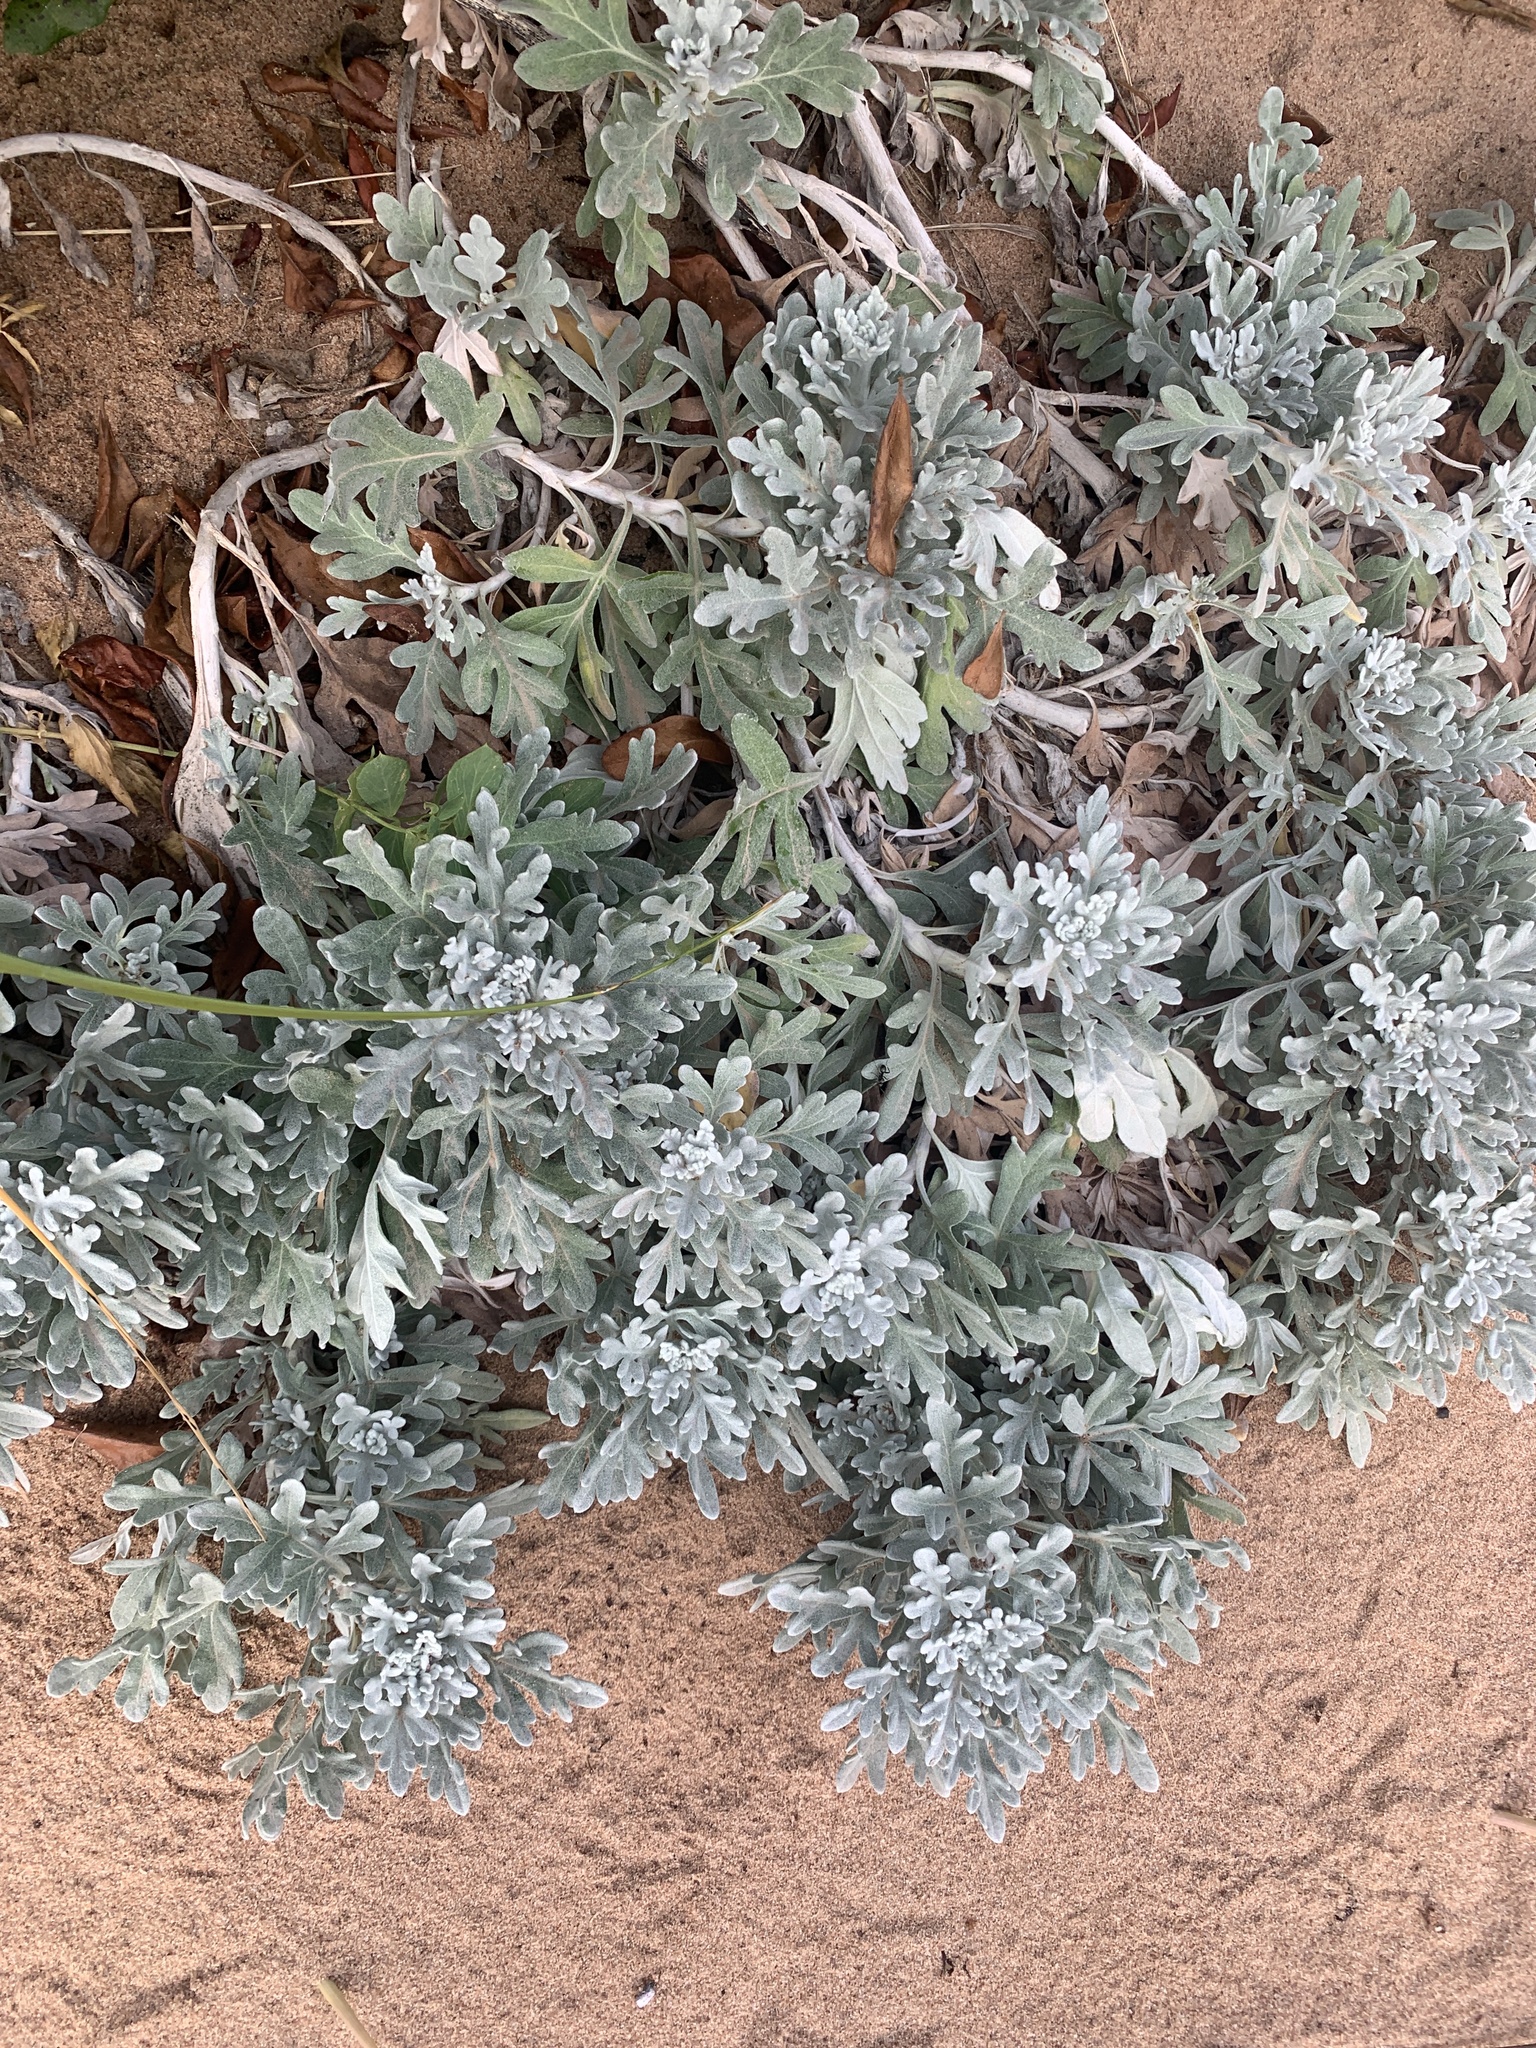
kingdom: Plantae
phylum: Tracheophyta
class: Magnoliopsida
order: Asterales
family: Asteraceae
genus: Artemisia
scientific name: Artemisia stelleriana
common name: Beach wormwood
